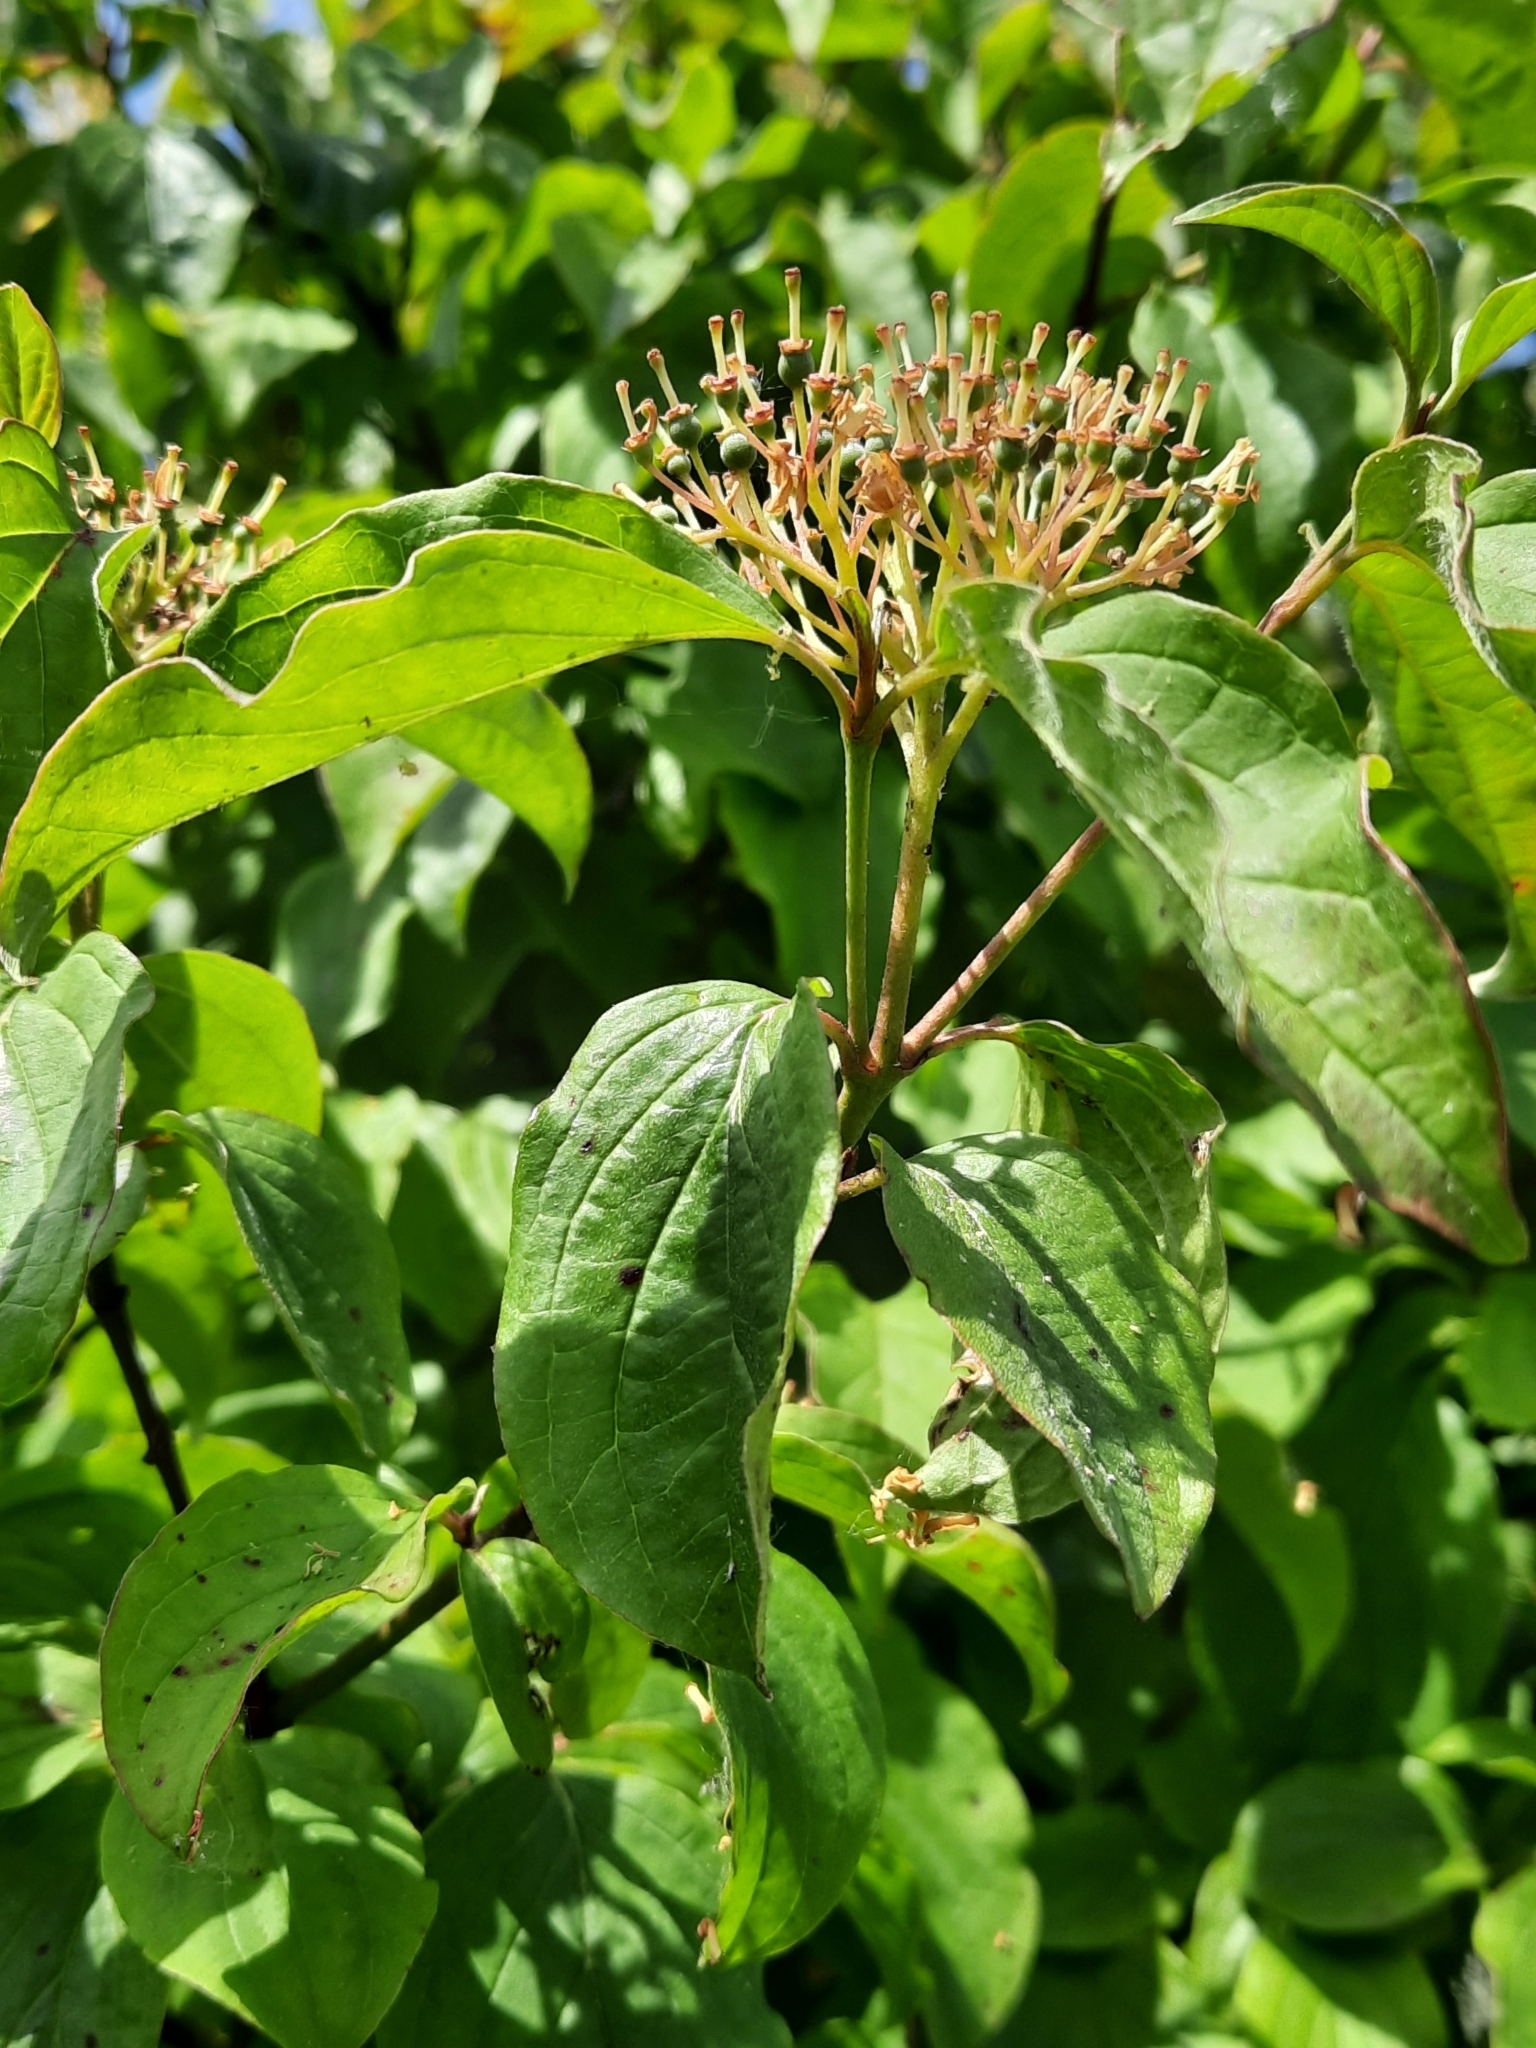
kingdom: Plantae
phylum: Tracheophyta
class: Magnoliopsida
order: Cornales
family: Cornaceae
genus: Cornus
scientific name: Cornus sanguinea
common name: Dogwood
